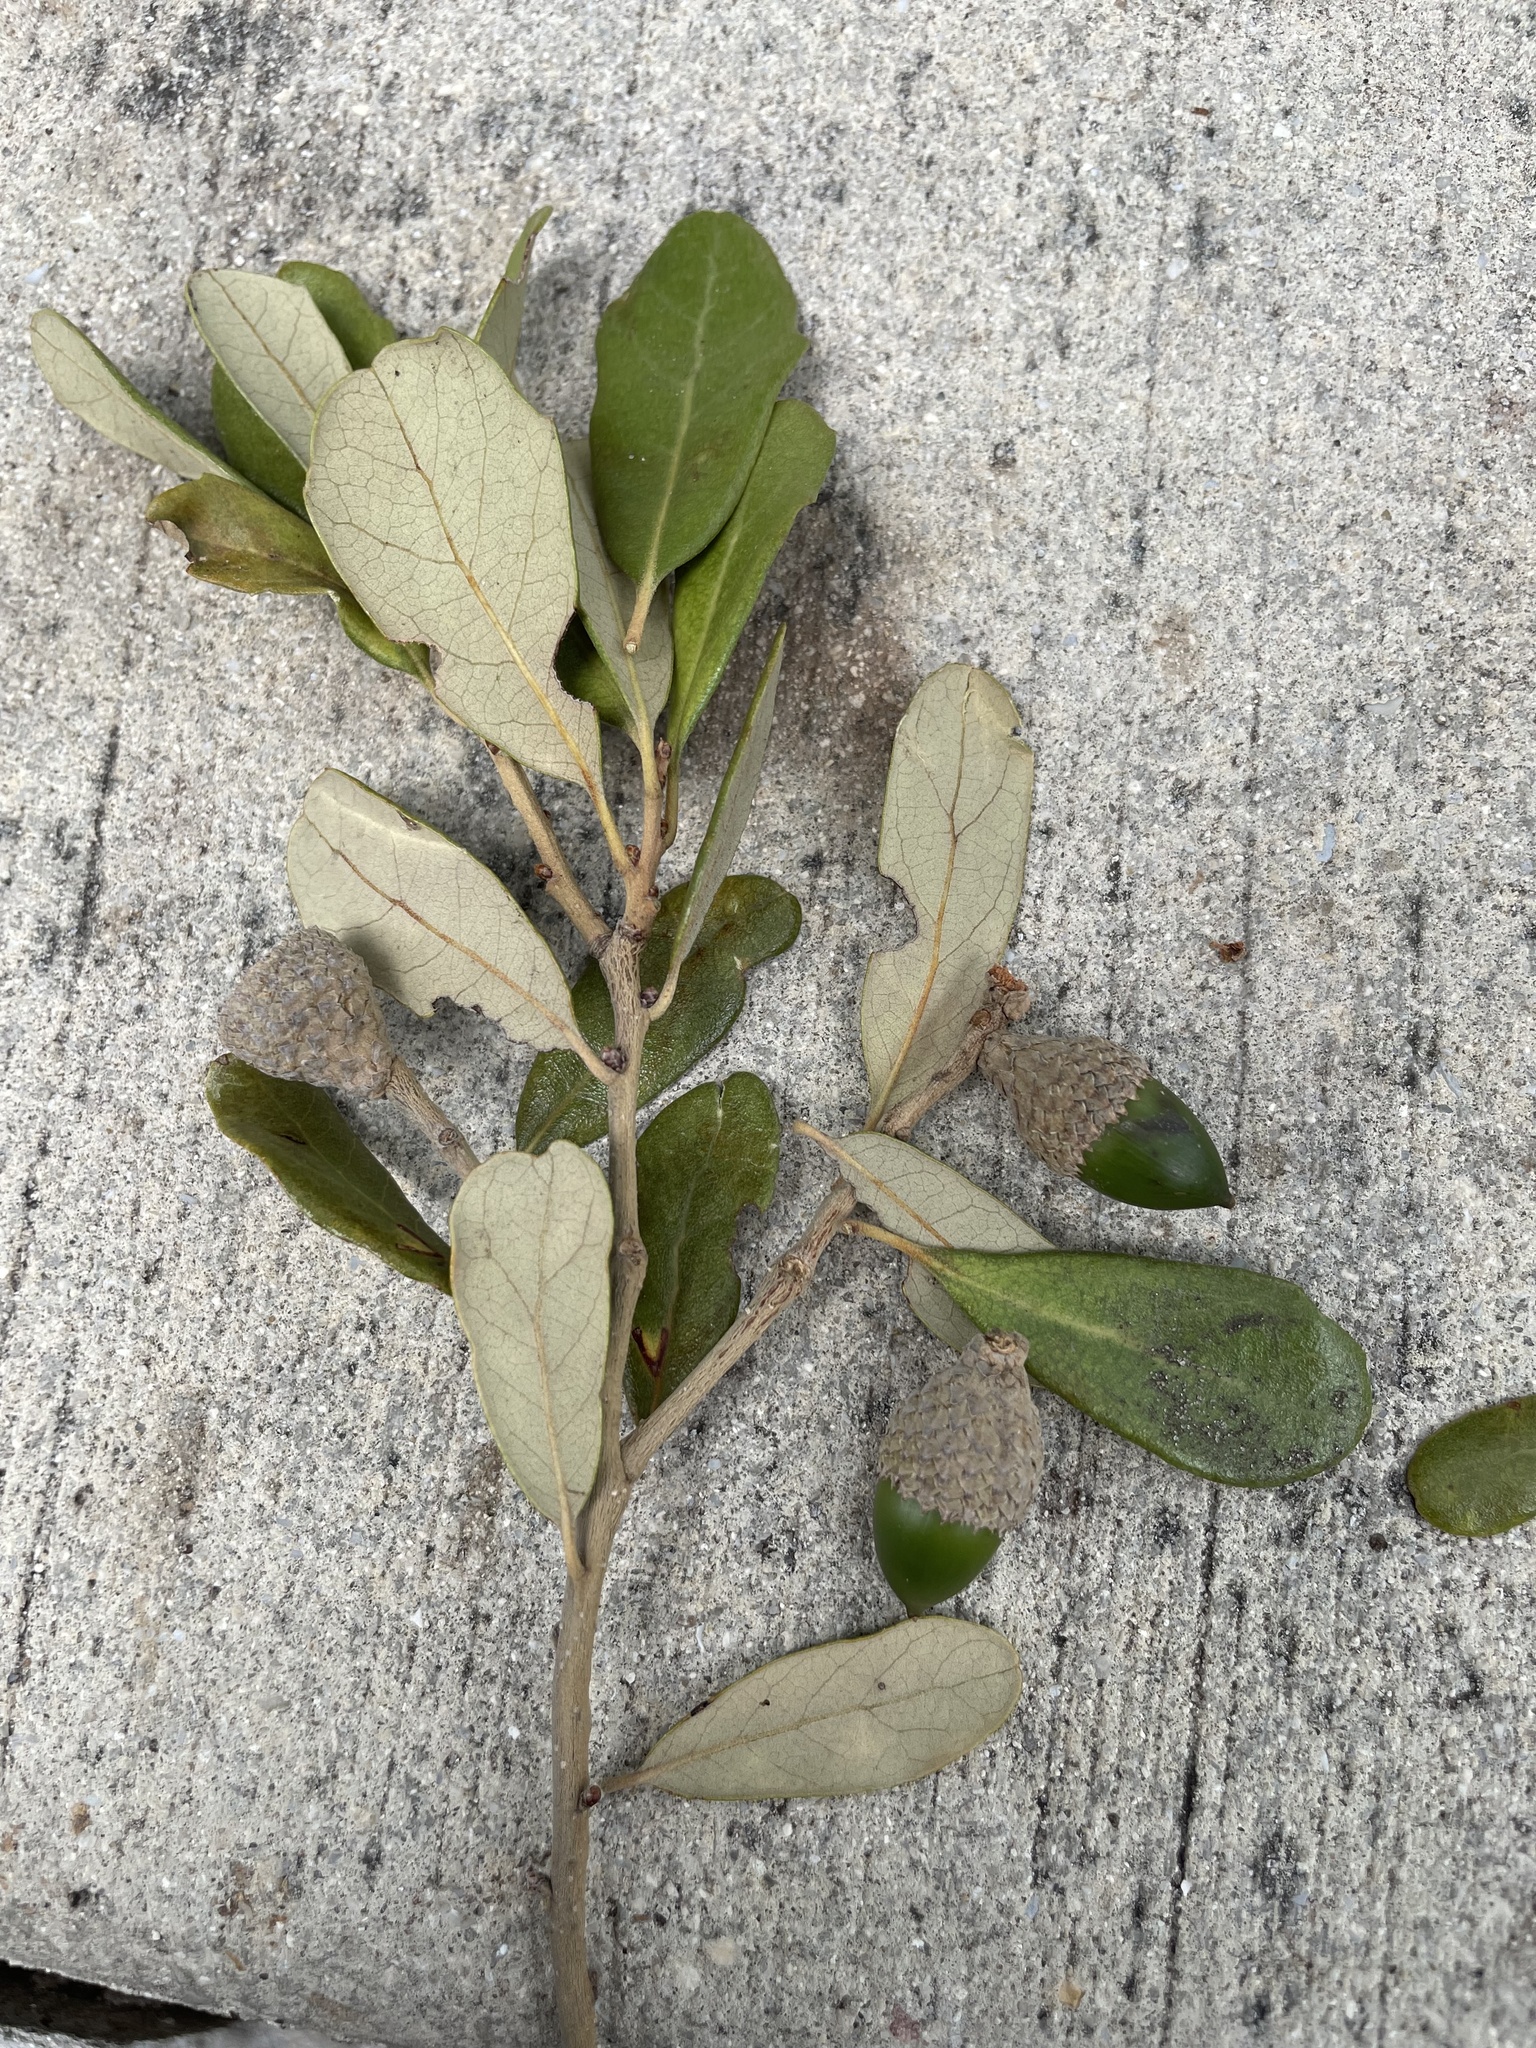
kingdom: Plantae
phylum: Tracheophyta
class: Magnoliopsida
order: Fagales
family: Fagaceae
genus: Quercus
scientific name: Quercus virginiana
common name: Southern live oak
